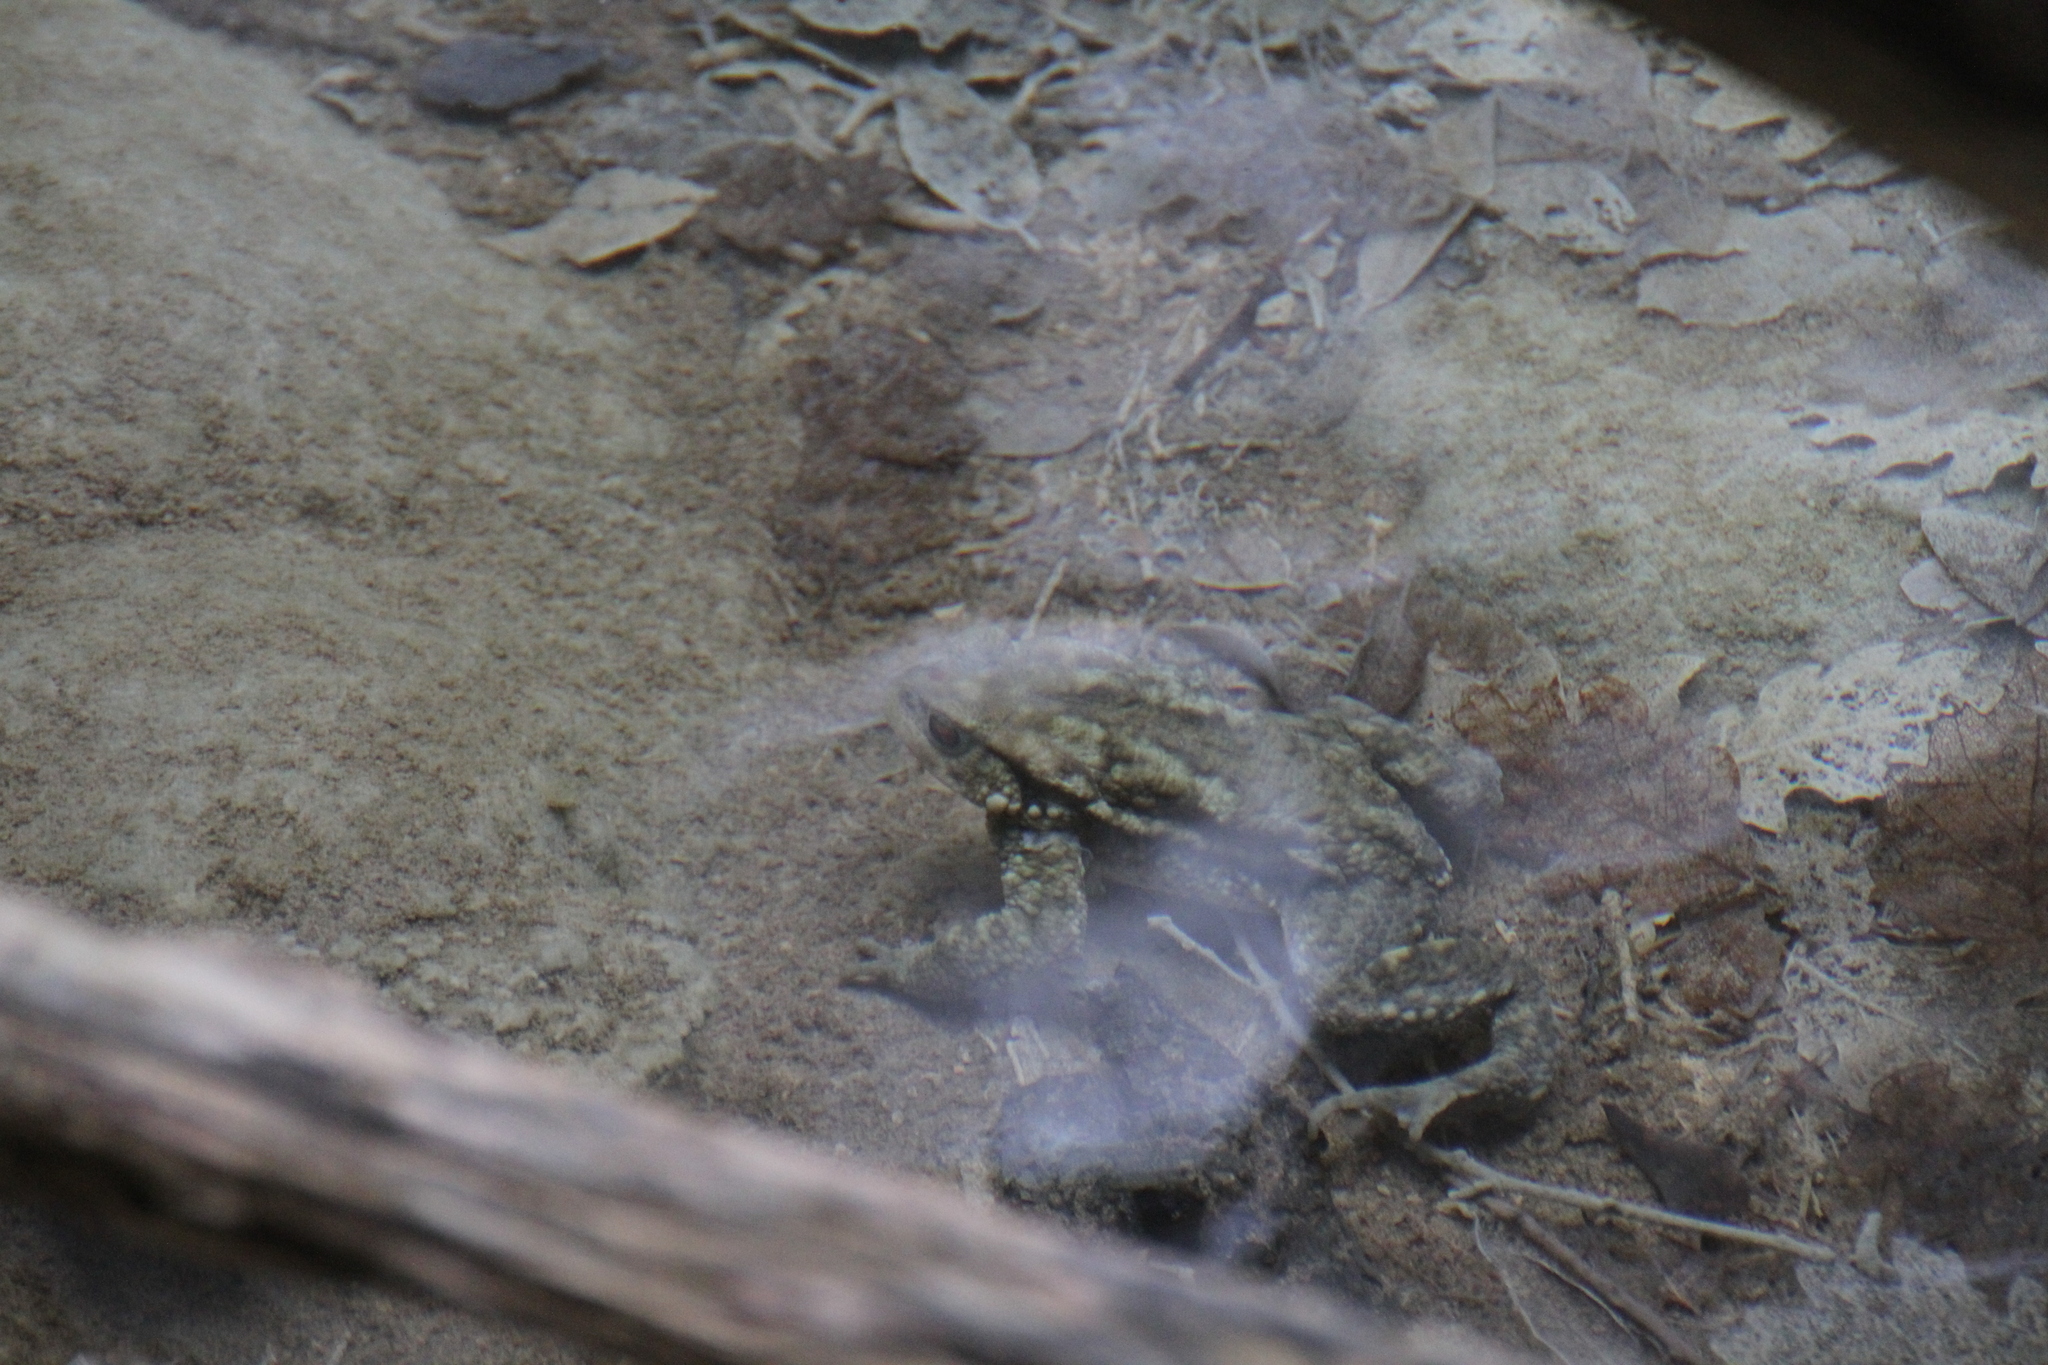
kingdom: Animalia
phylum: Chordata
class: Amphibia
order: Anura
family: Bufonidae
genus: Bufo
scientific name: Bufo spinosus
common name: Western common toad
